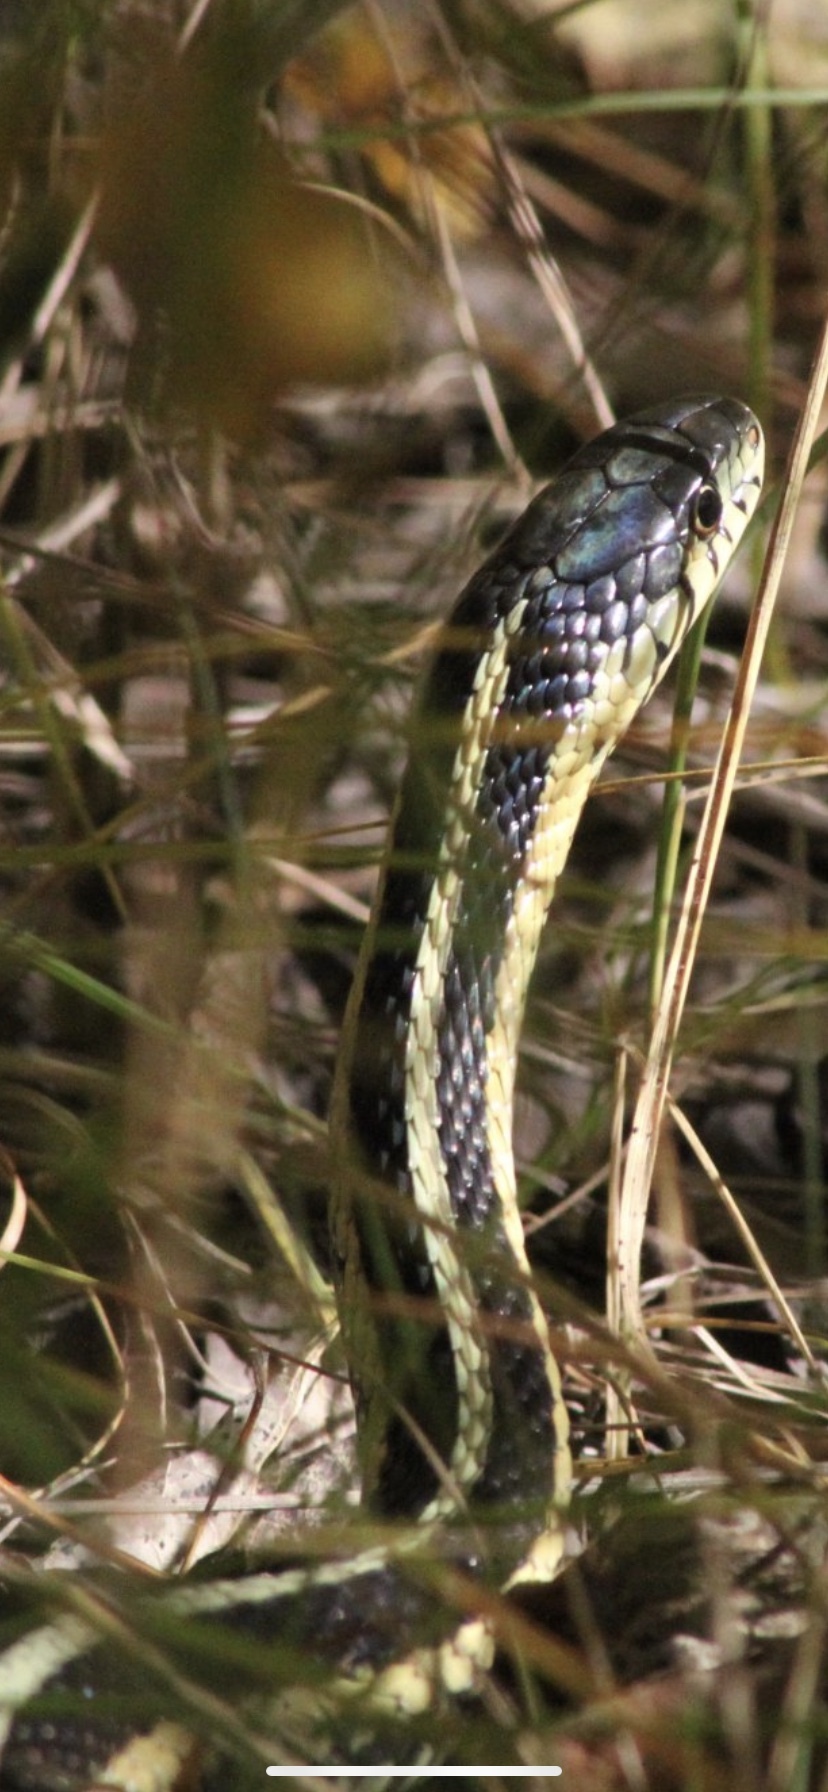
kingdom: Animalia
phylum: Chordata
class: Squamata
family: Colubridae
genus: Thamnophis
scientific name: Thamnophis sirtalis
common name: Common garter snake
